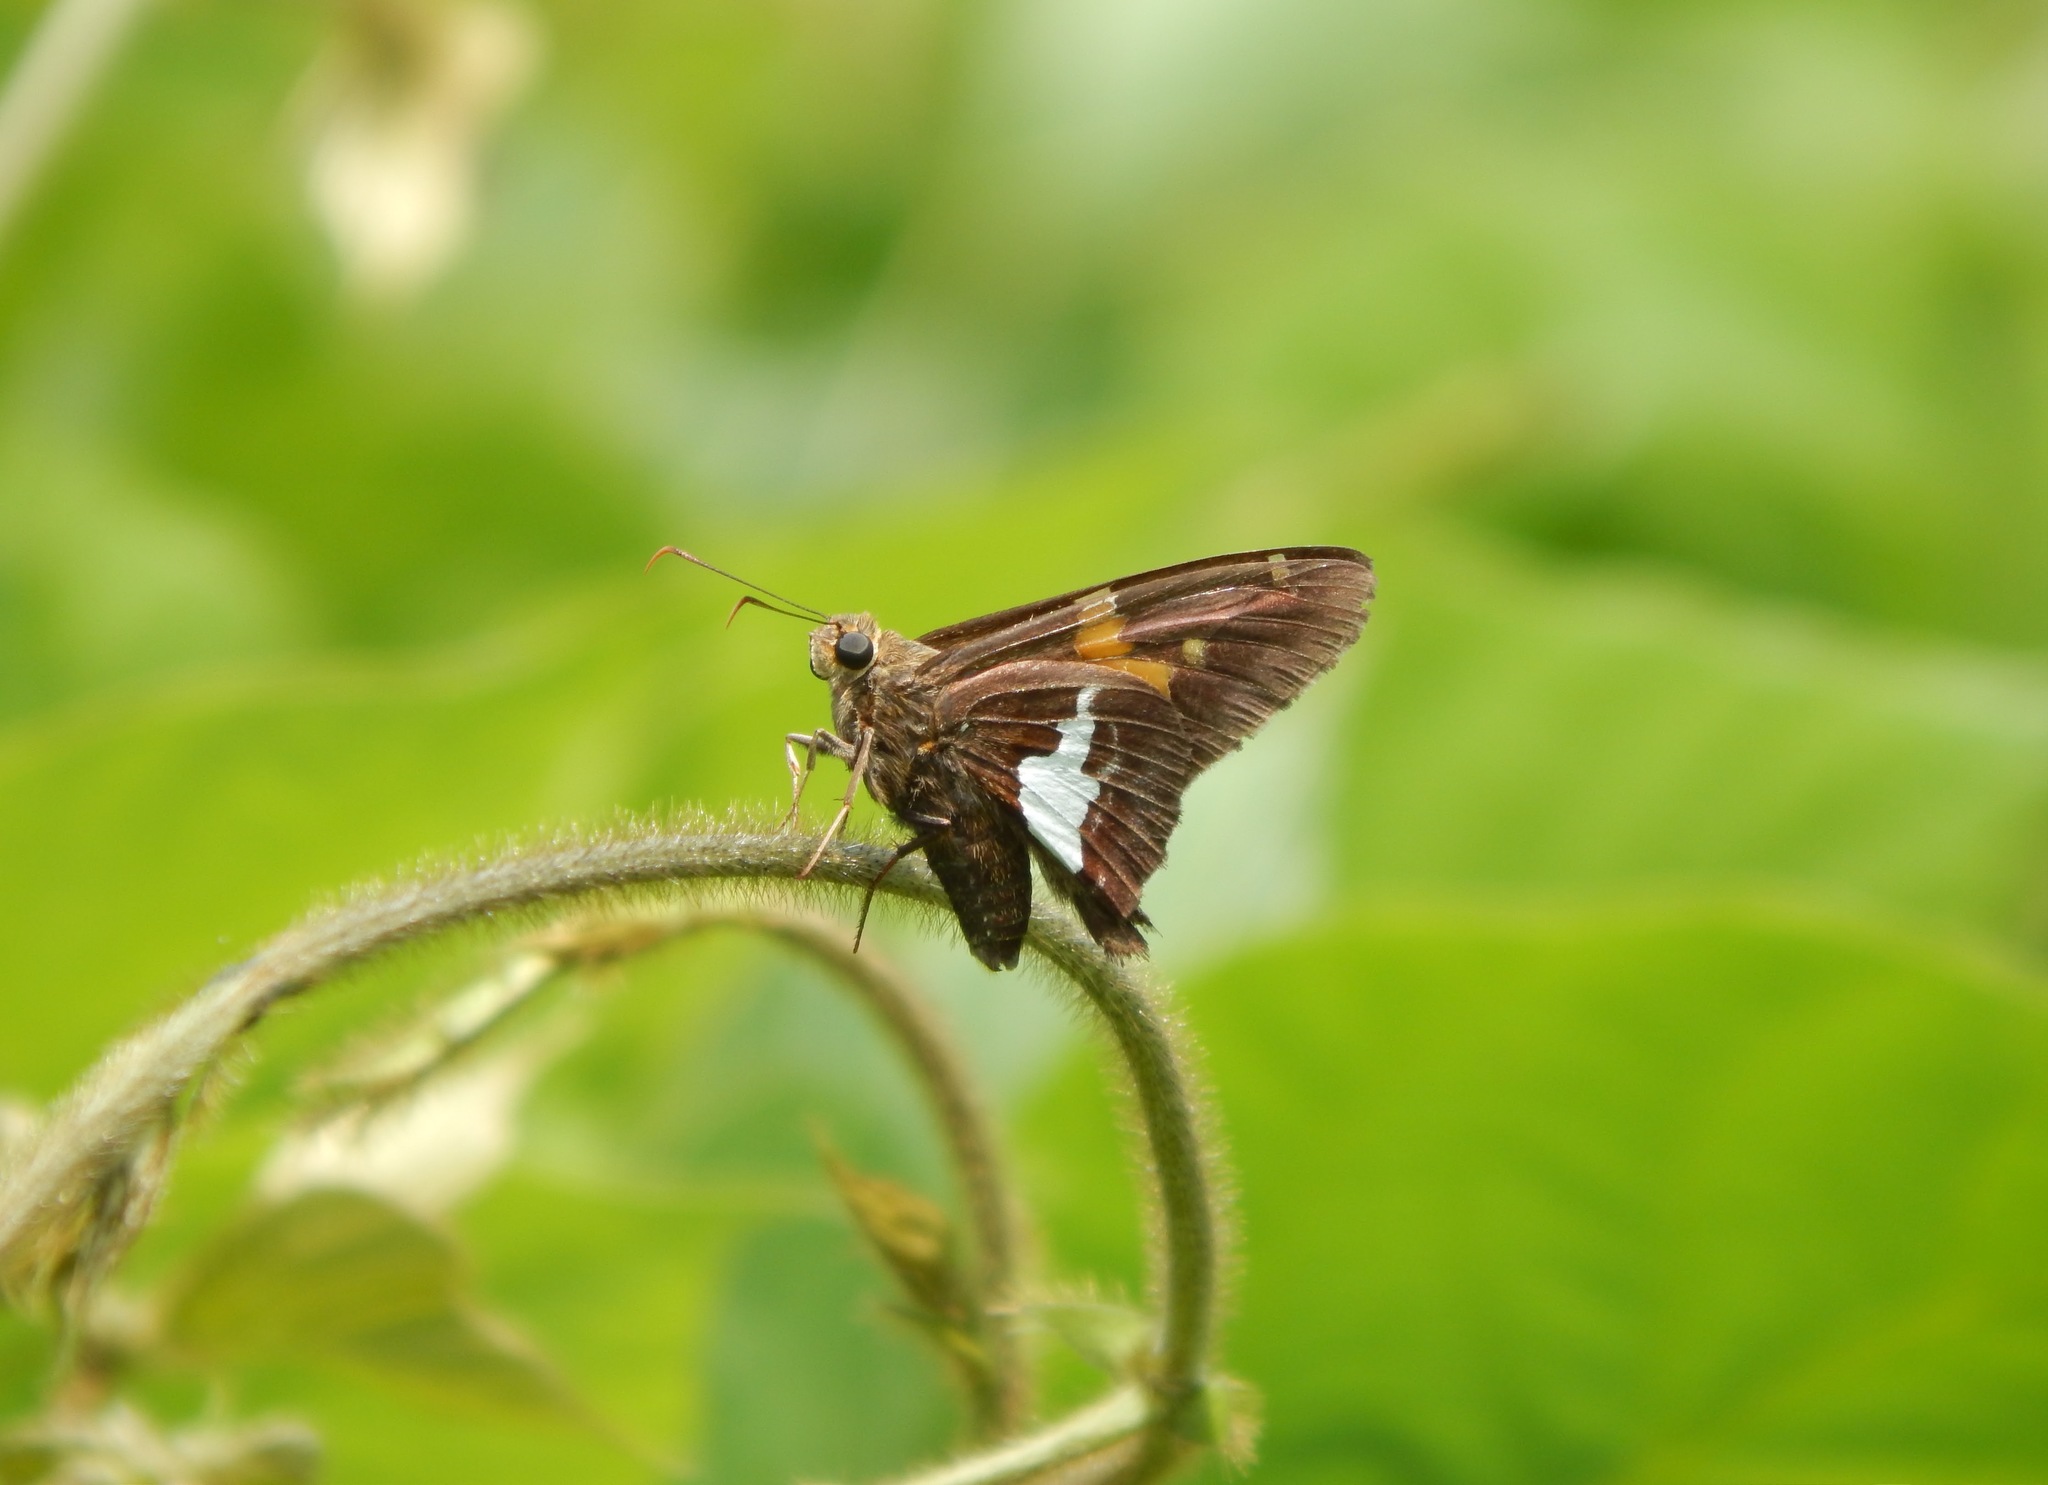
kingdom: Animalia
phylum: Arthropoda
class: Insecta
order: Lepidoptera
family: Hesperiidae
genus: Epargyreus
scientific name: Epargyreus clarus
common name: Silver-spotted skipper
